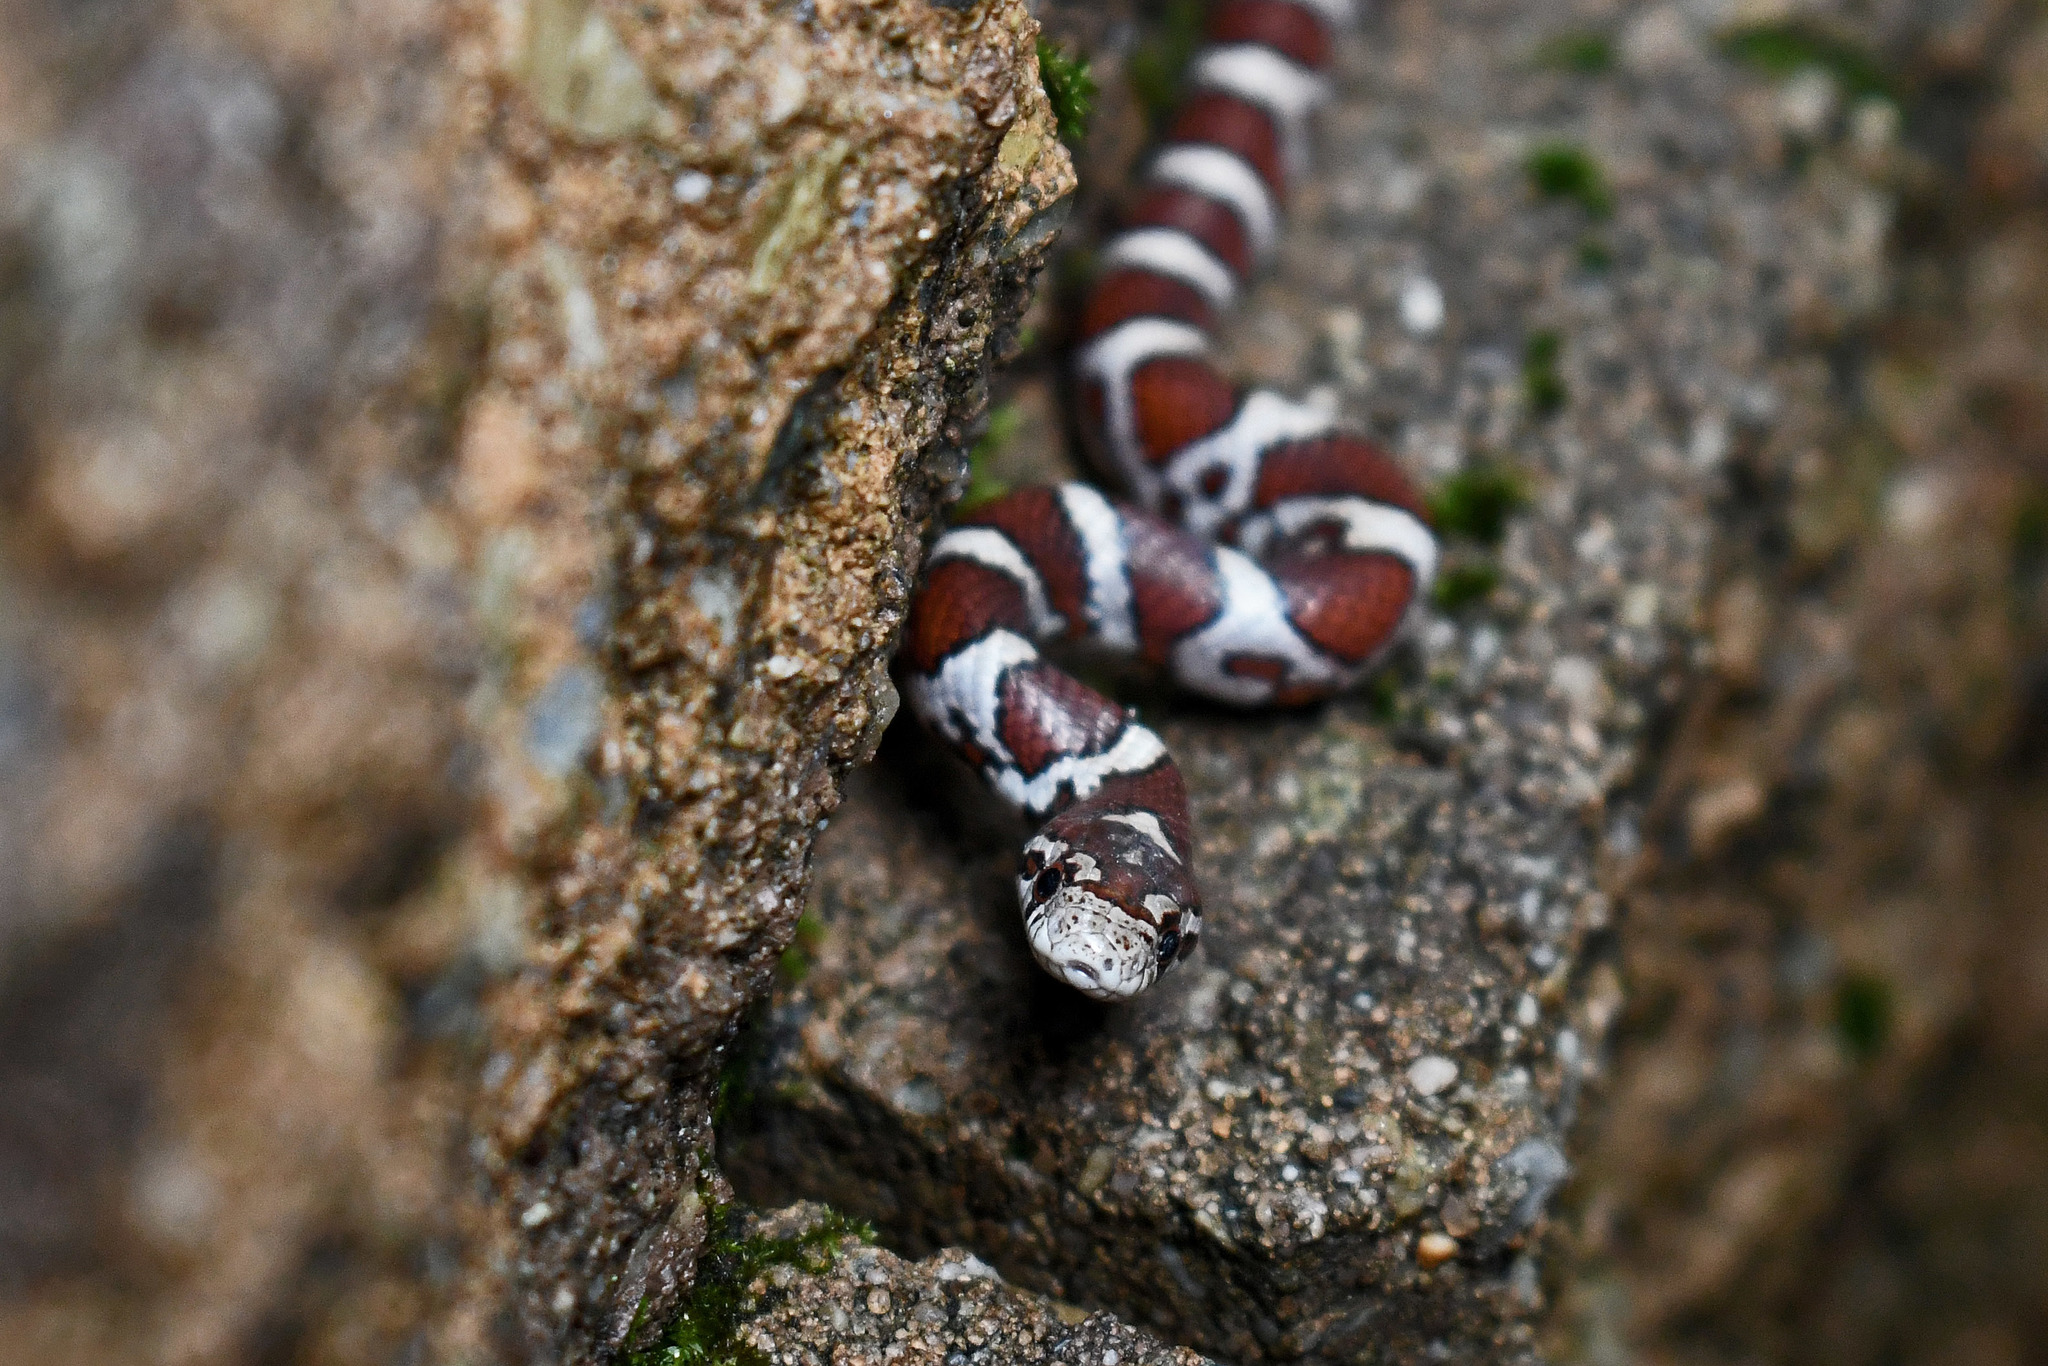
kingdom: Animalia
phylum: Chordata
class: Squamata
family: Colubridae
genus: Lampropeltis
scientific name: Lampropeltis triangulum
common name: Eastern milksnake
